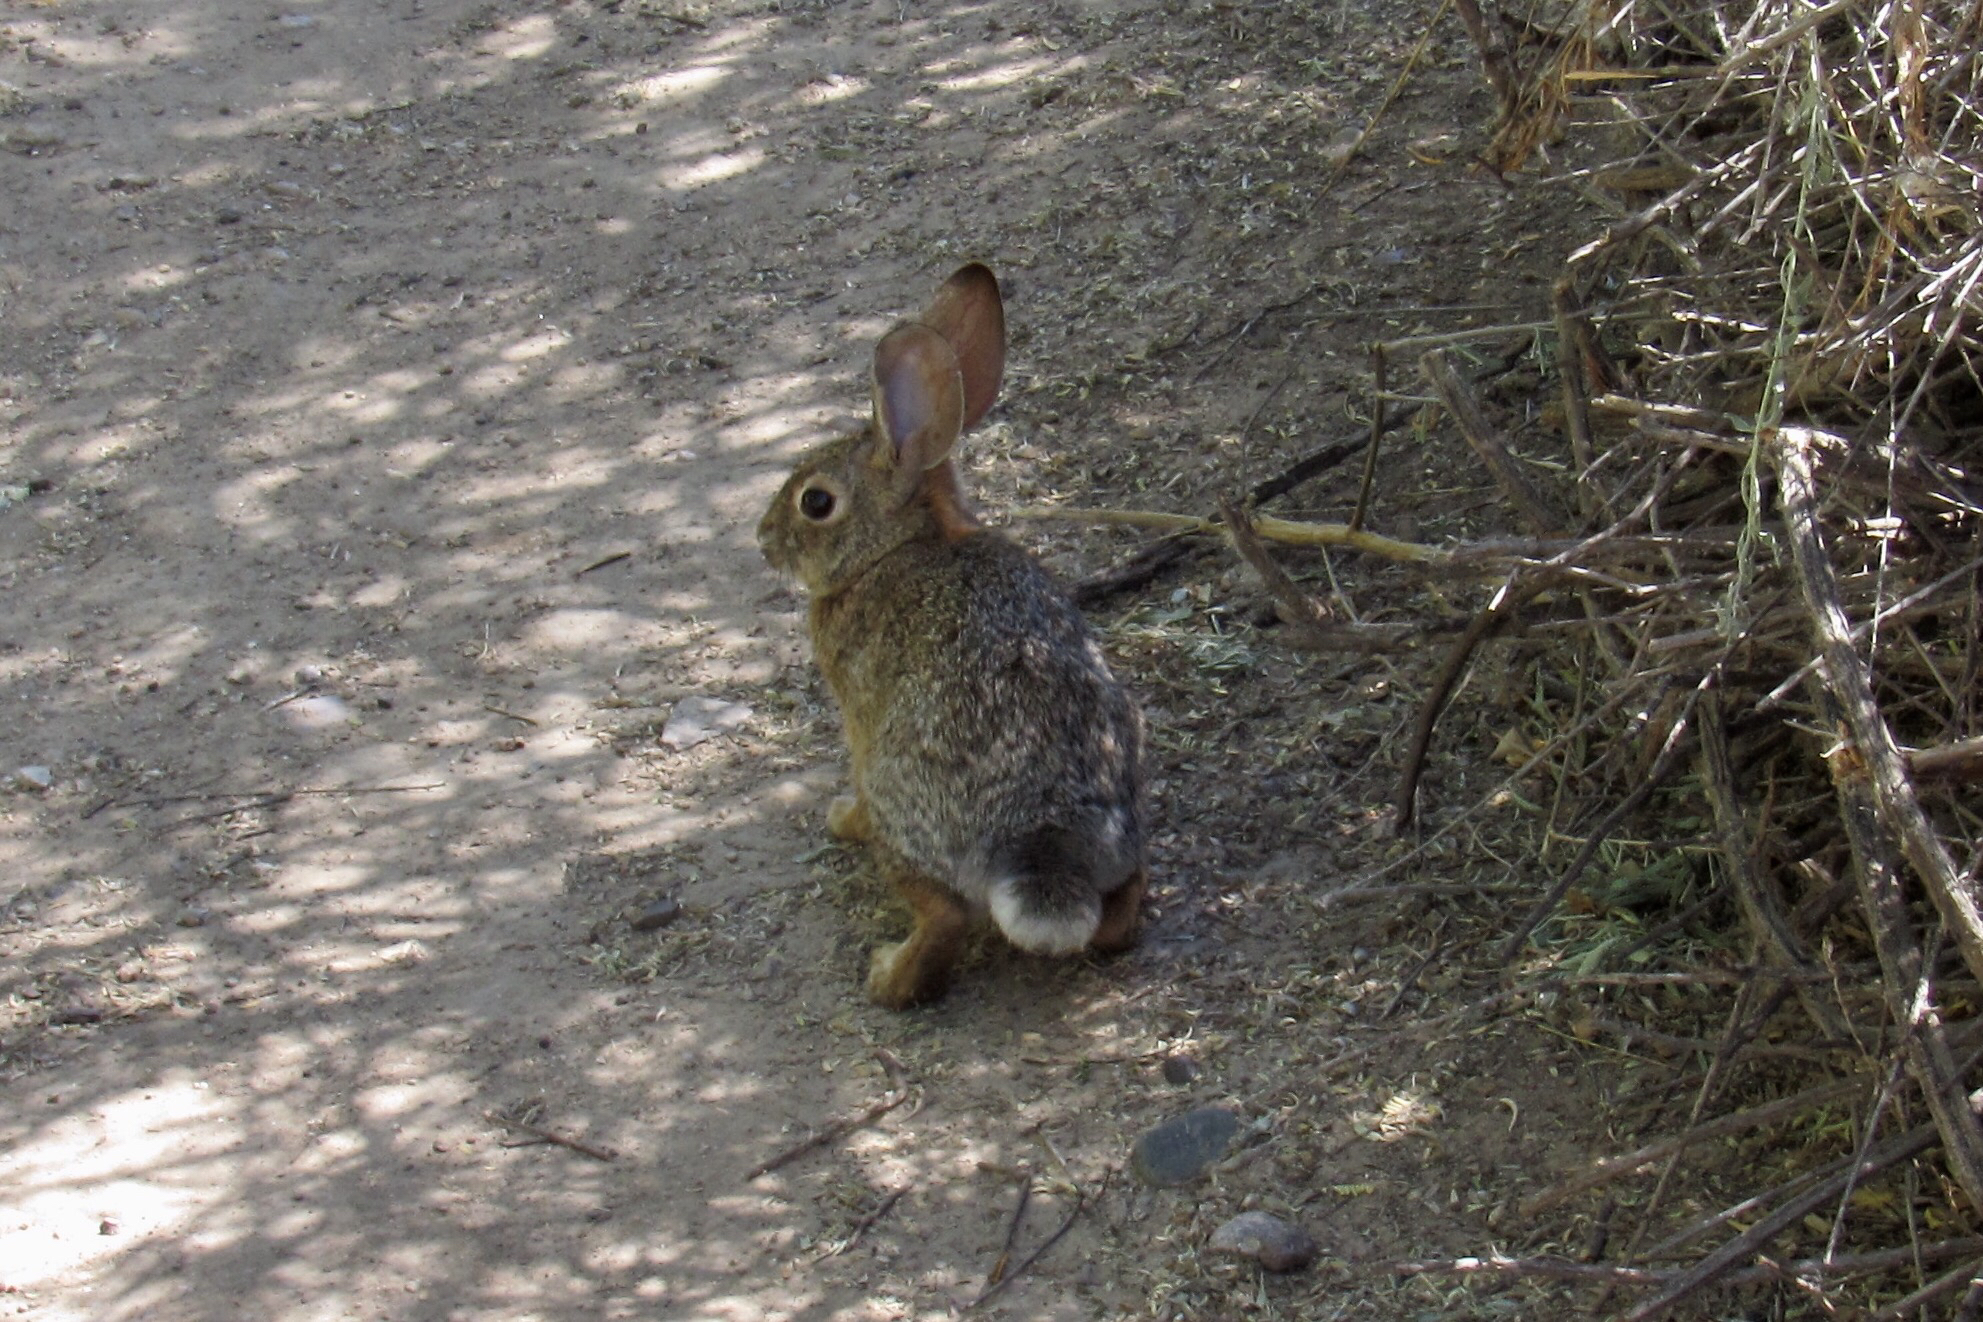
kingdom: Animalia
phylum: Chordata
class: Mammalia
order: Lagomorpha
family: Leporidae
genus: Sylvilagus
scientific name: Sylvilagus audubonii
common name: Desert cottontail
